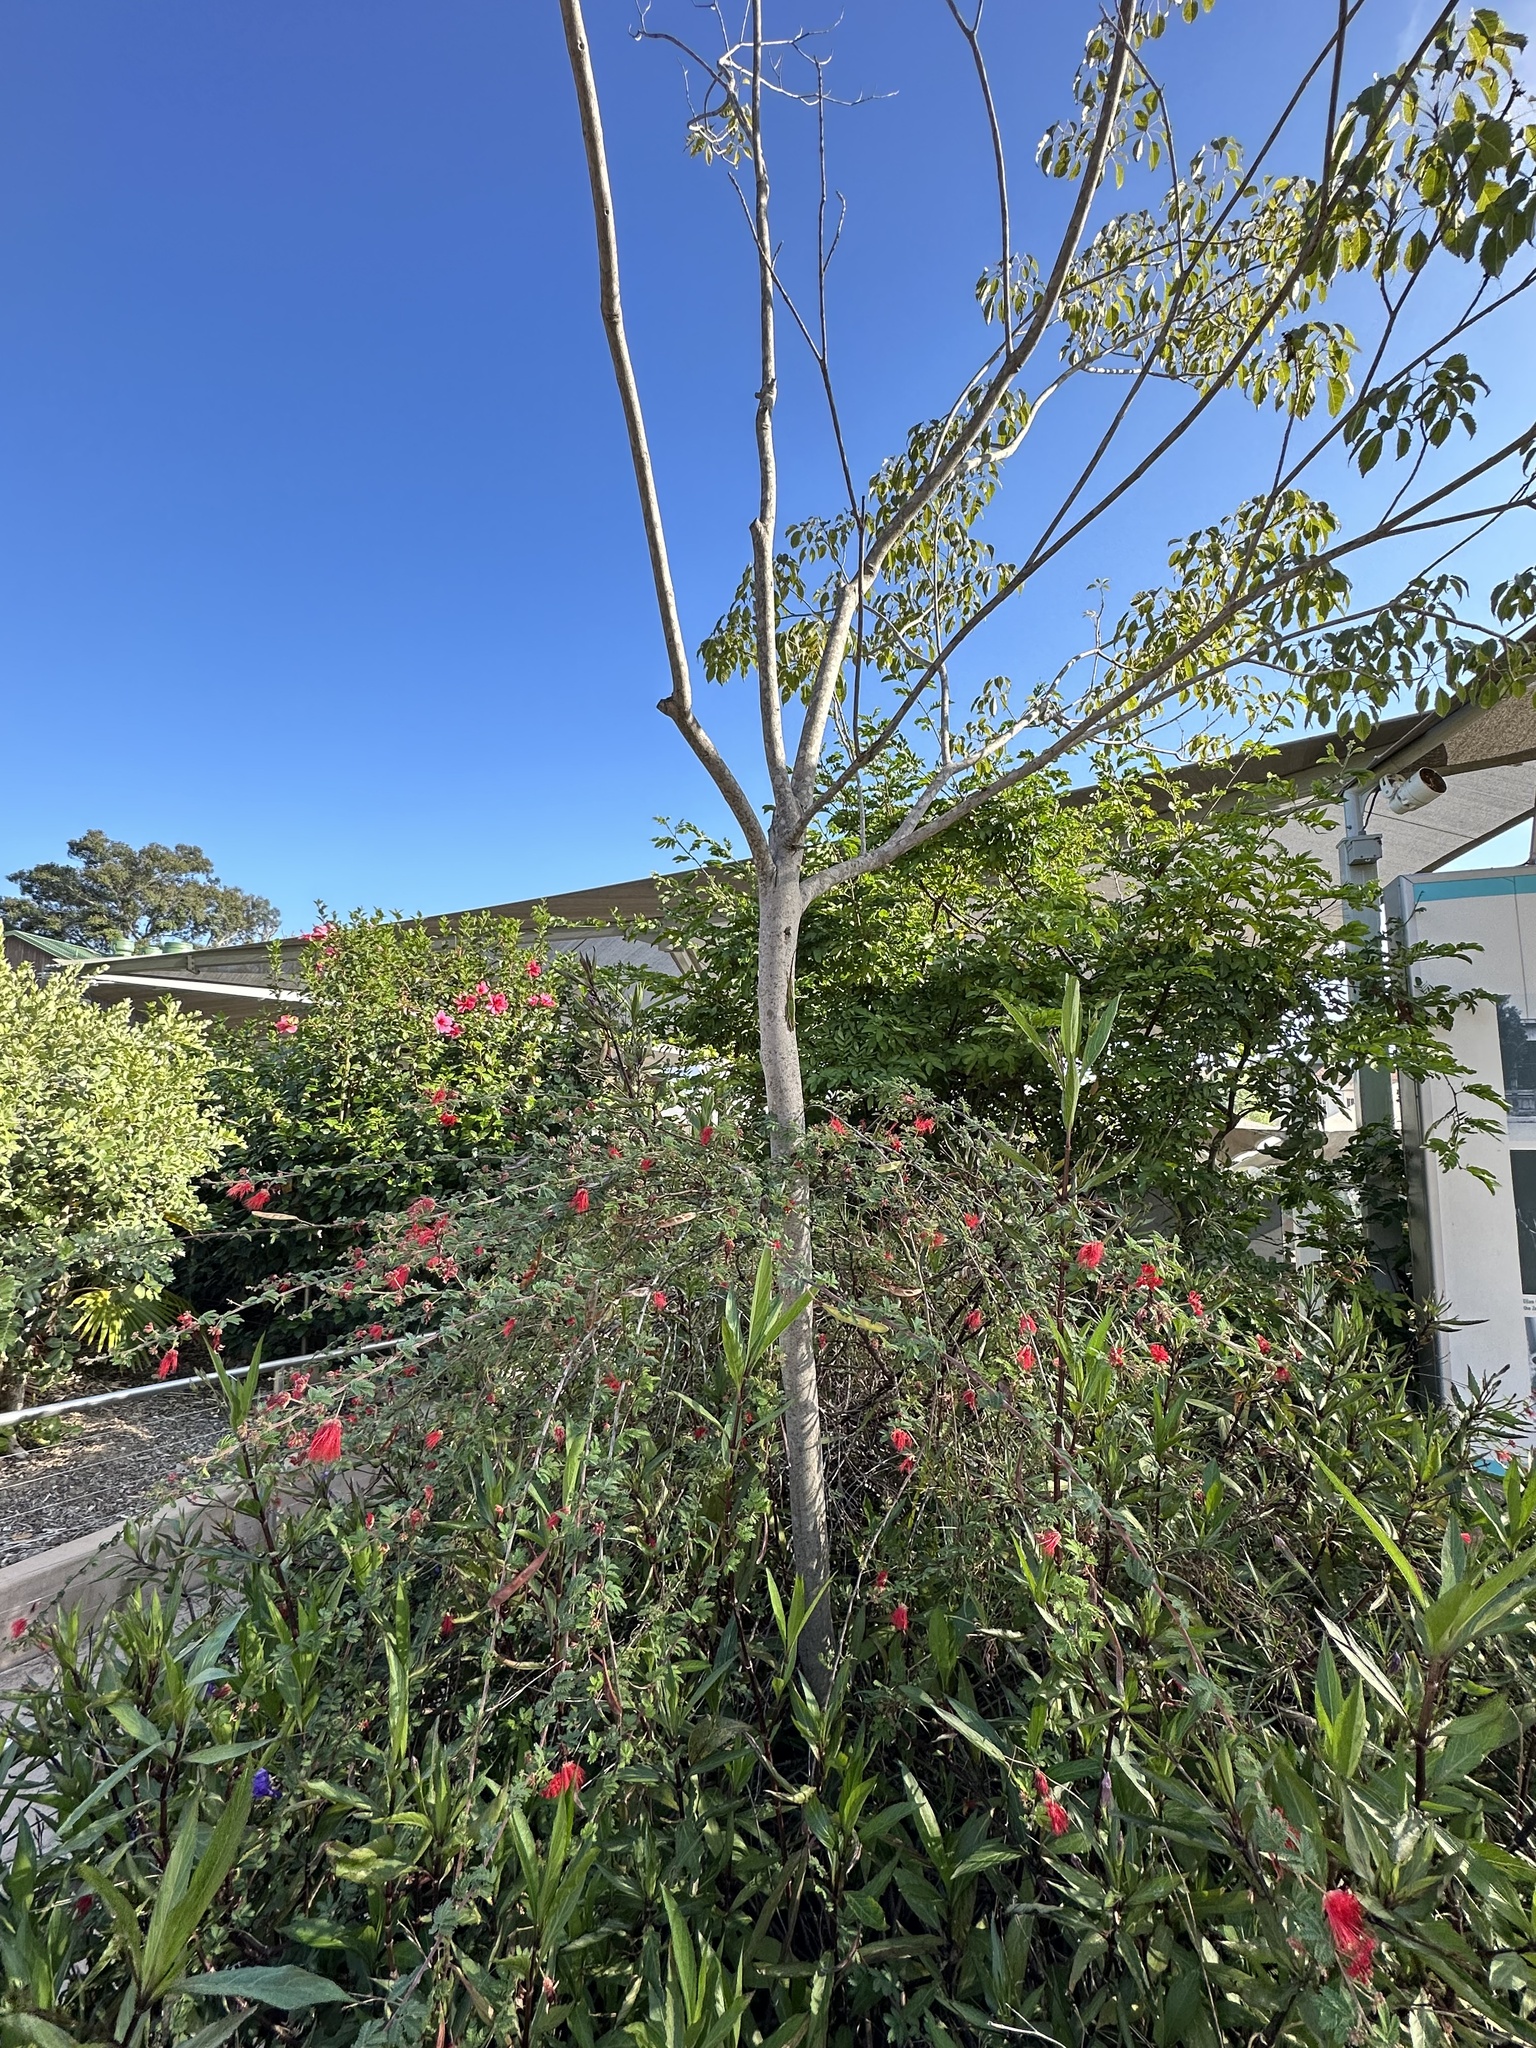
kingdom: Animalia
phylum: Chordata
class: Squamata
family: Dactyloidae
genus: Anolis
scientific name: Anolis carolinensis
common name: Green anole
